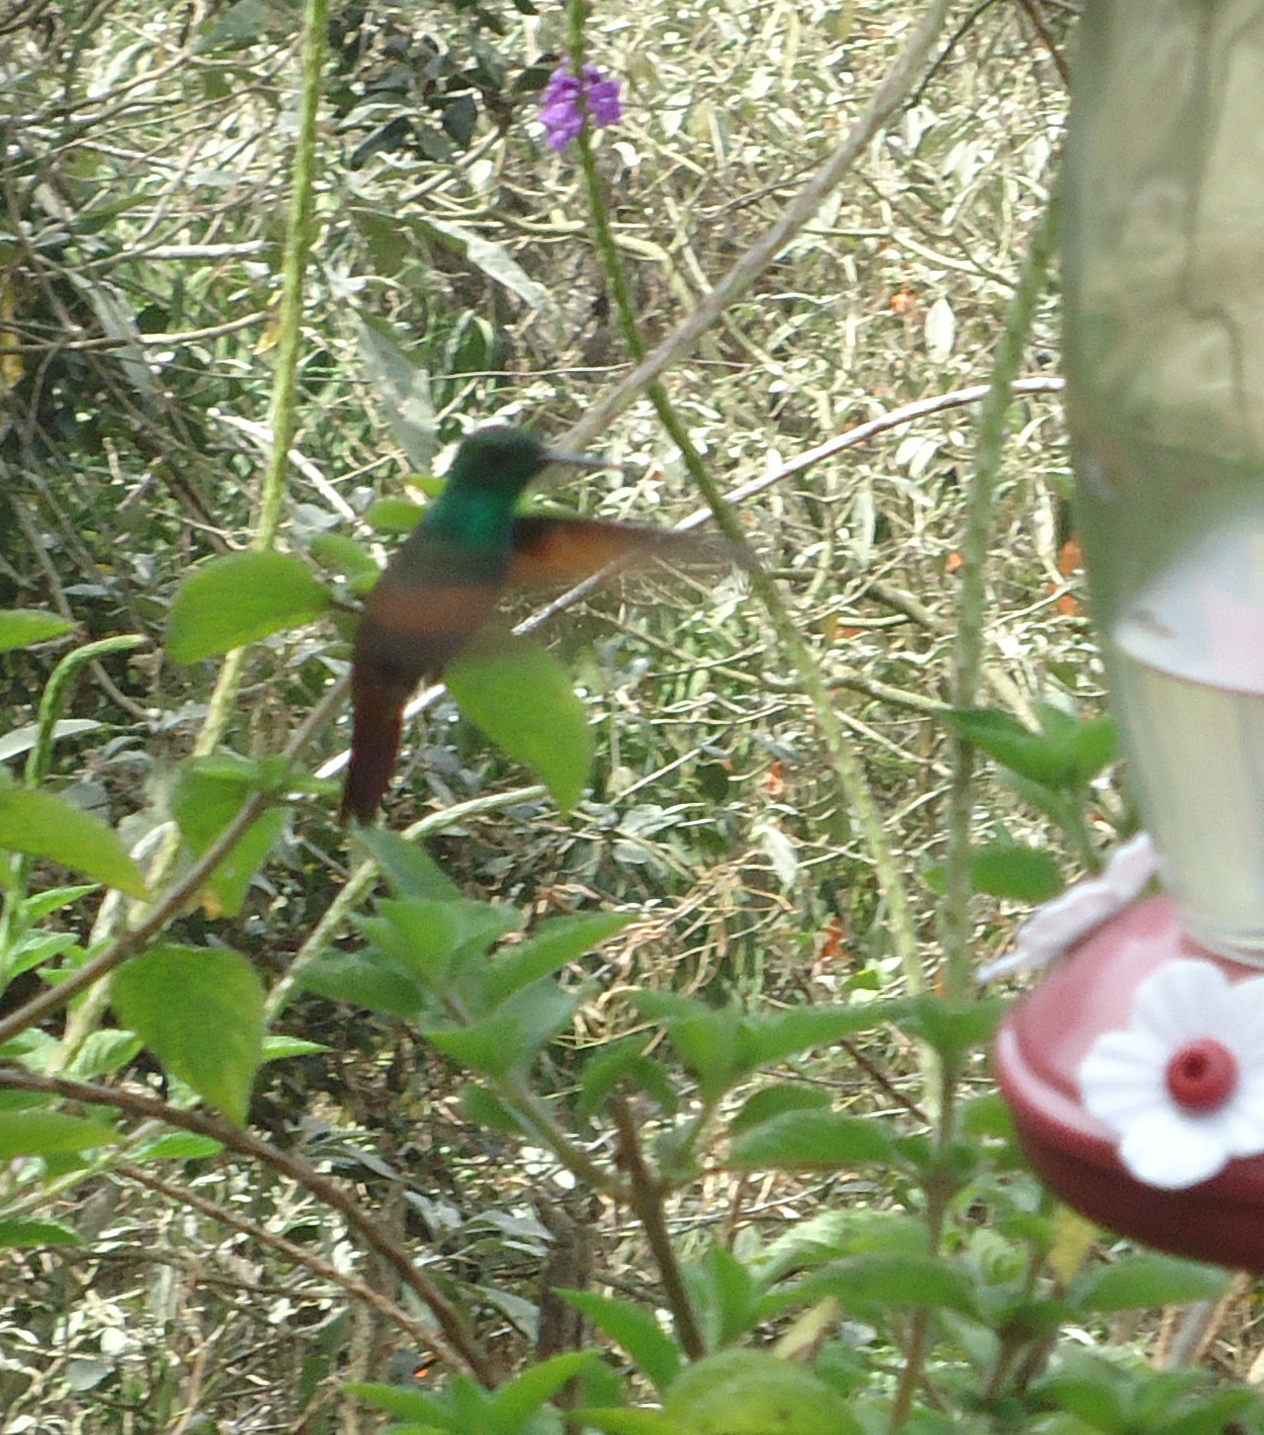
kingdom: Animalia
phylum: Chordata
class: Aves
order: Apodiformes
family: Trochilidae
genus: Saucerottia
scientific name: Saucerottia beryllina
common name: Berylline hummingbird
